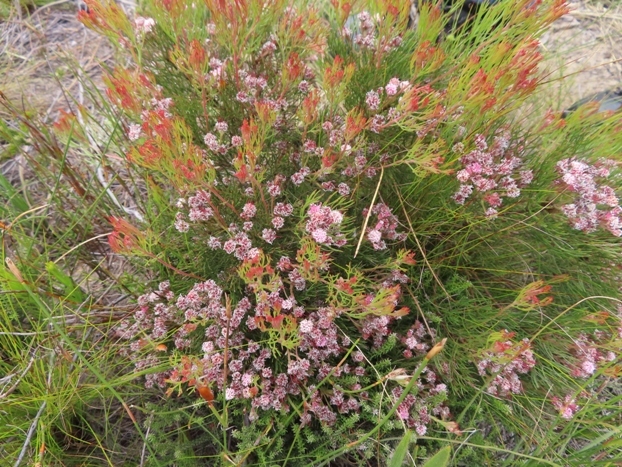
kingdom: Plantae
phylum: Tracheophyta
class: Magnoliopsida
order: Proteales
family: Proteaceae
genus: Serruria
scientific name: Serruria fasciflora
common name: Common pin spiderhead
